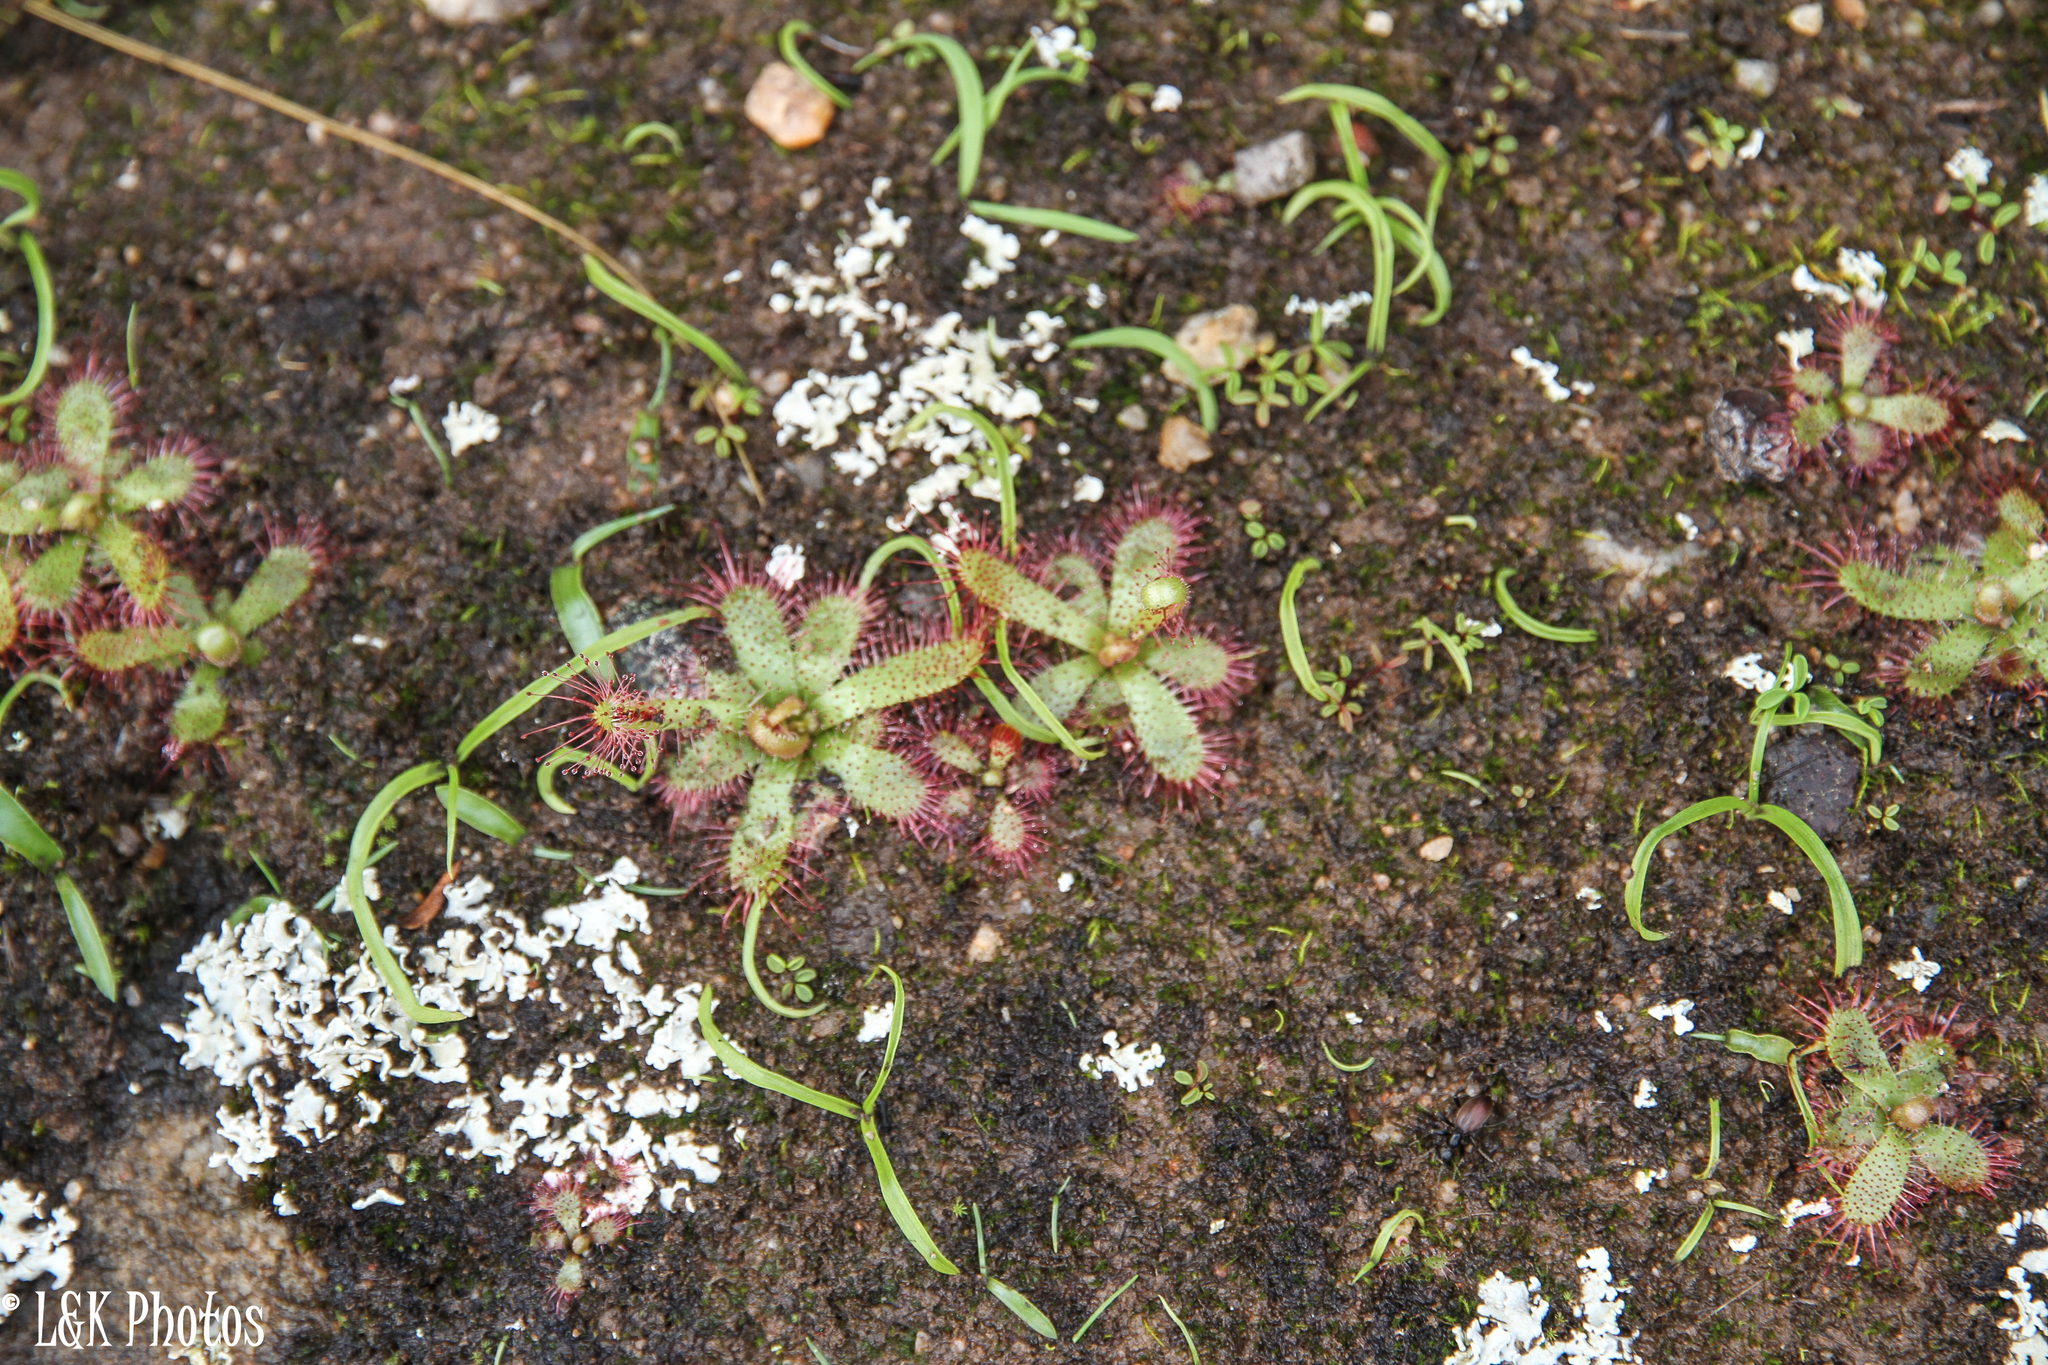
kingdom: Plantae
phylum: Tracheophyta
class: Magnoliopsida
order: Caryophyllales
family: Droseraceae
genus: Drosera
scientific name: Drosera alba
